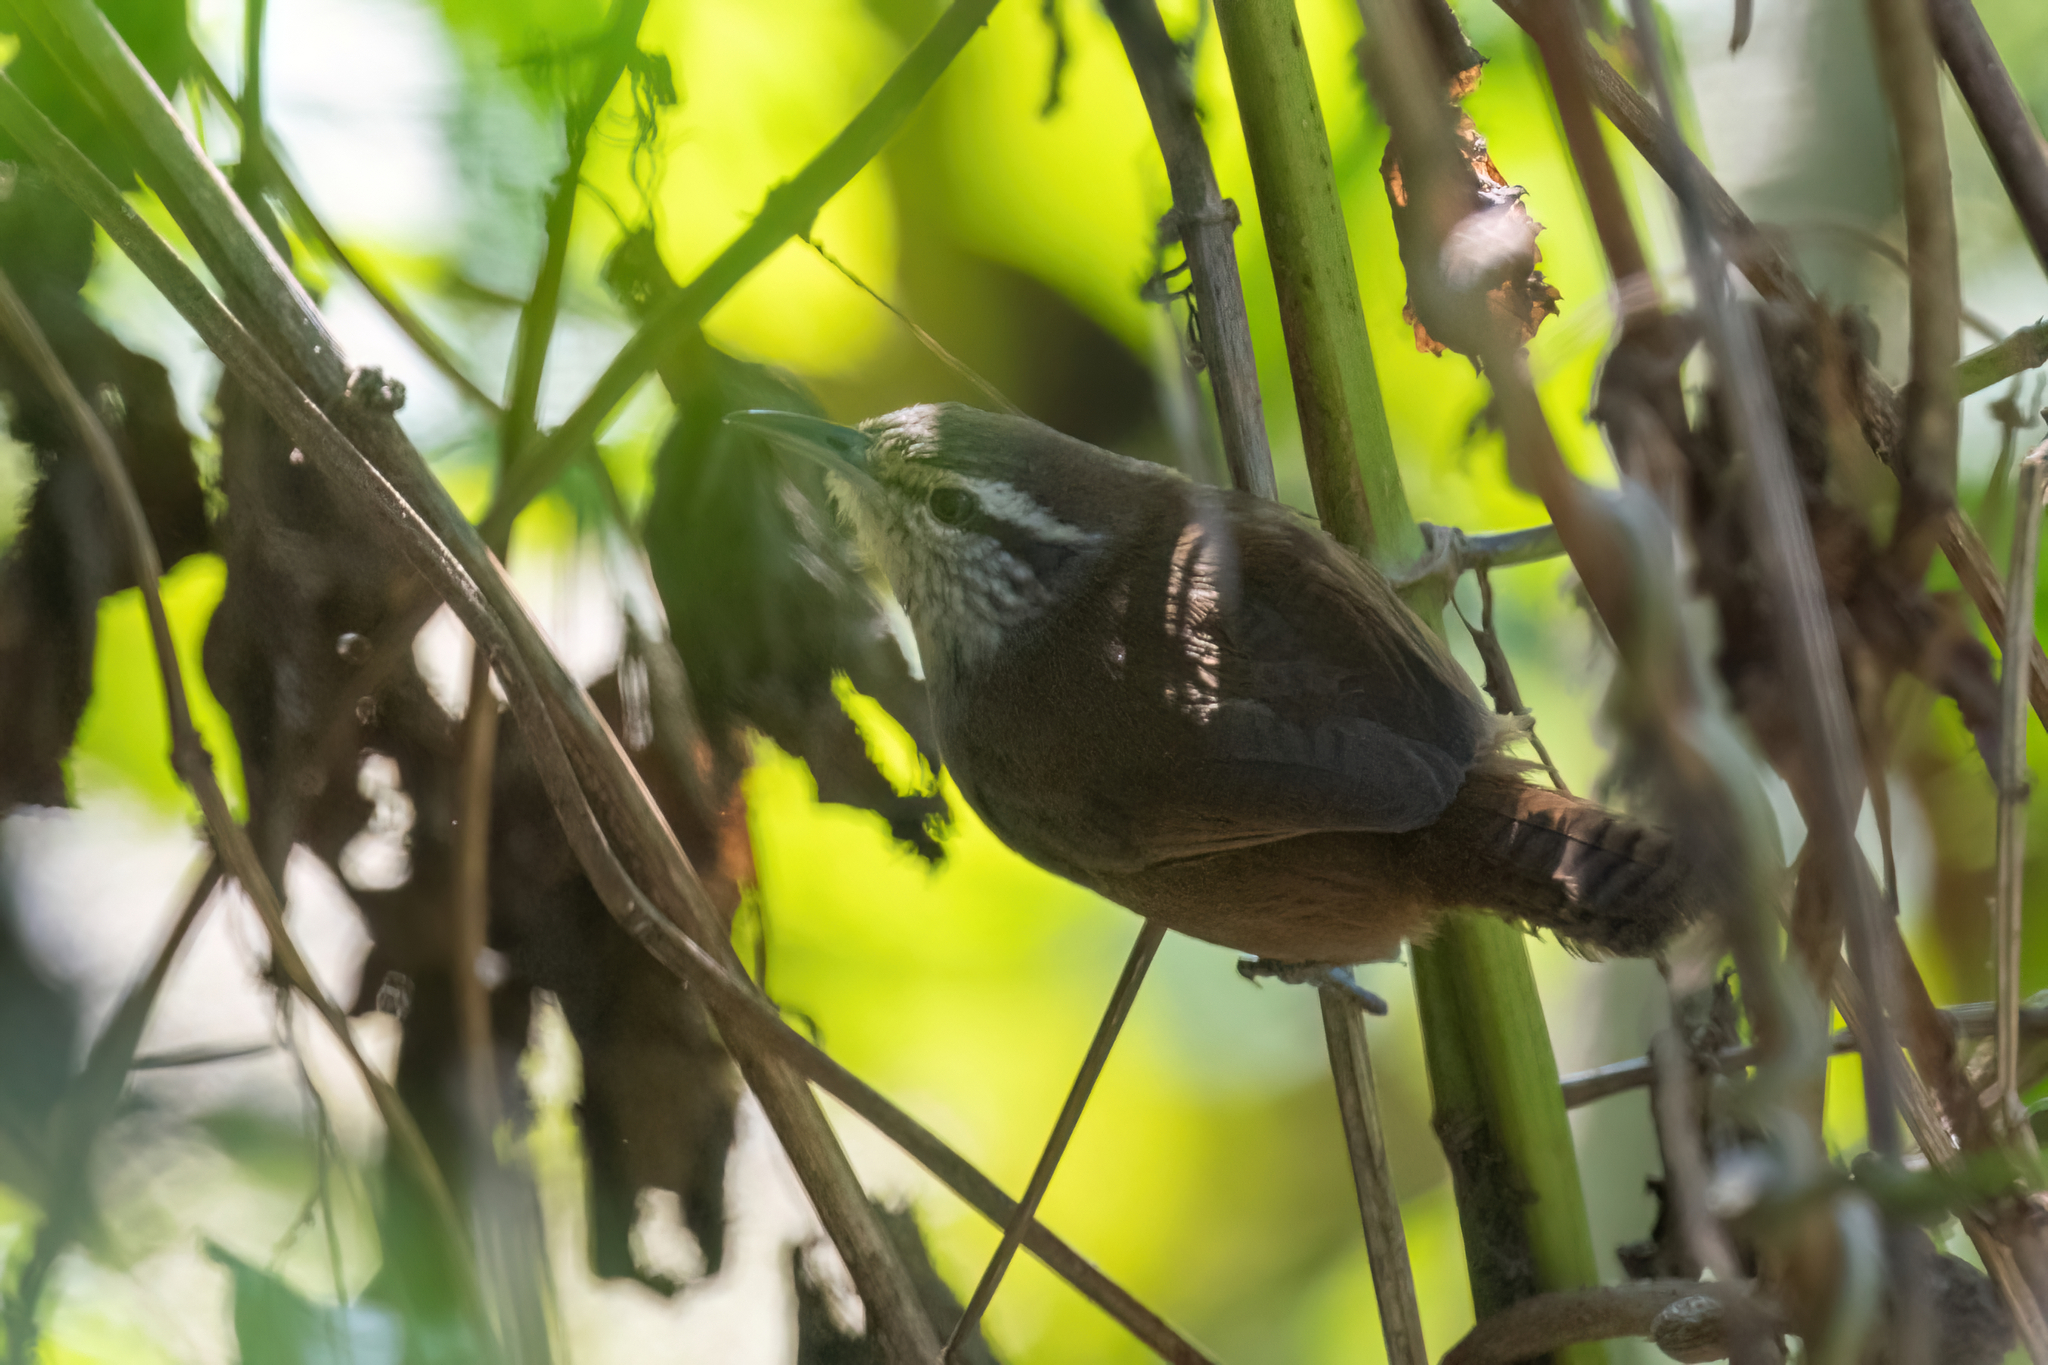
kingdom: Animalia
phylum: Chordata
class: Aves
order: Passeriformes
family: Troglodytidae
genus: Cantorchilus
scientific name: Cantorchilus modestus
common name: Cabanis's wren
